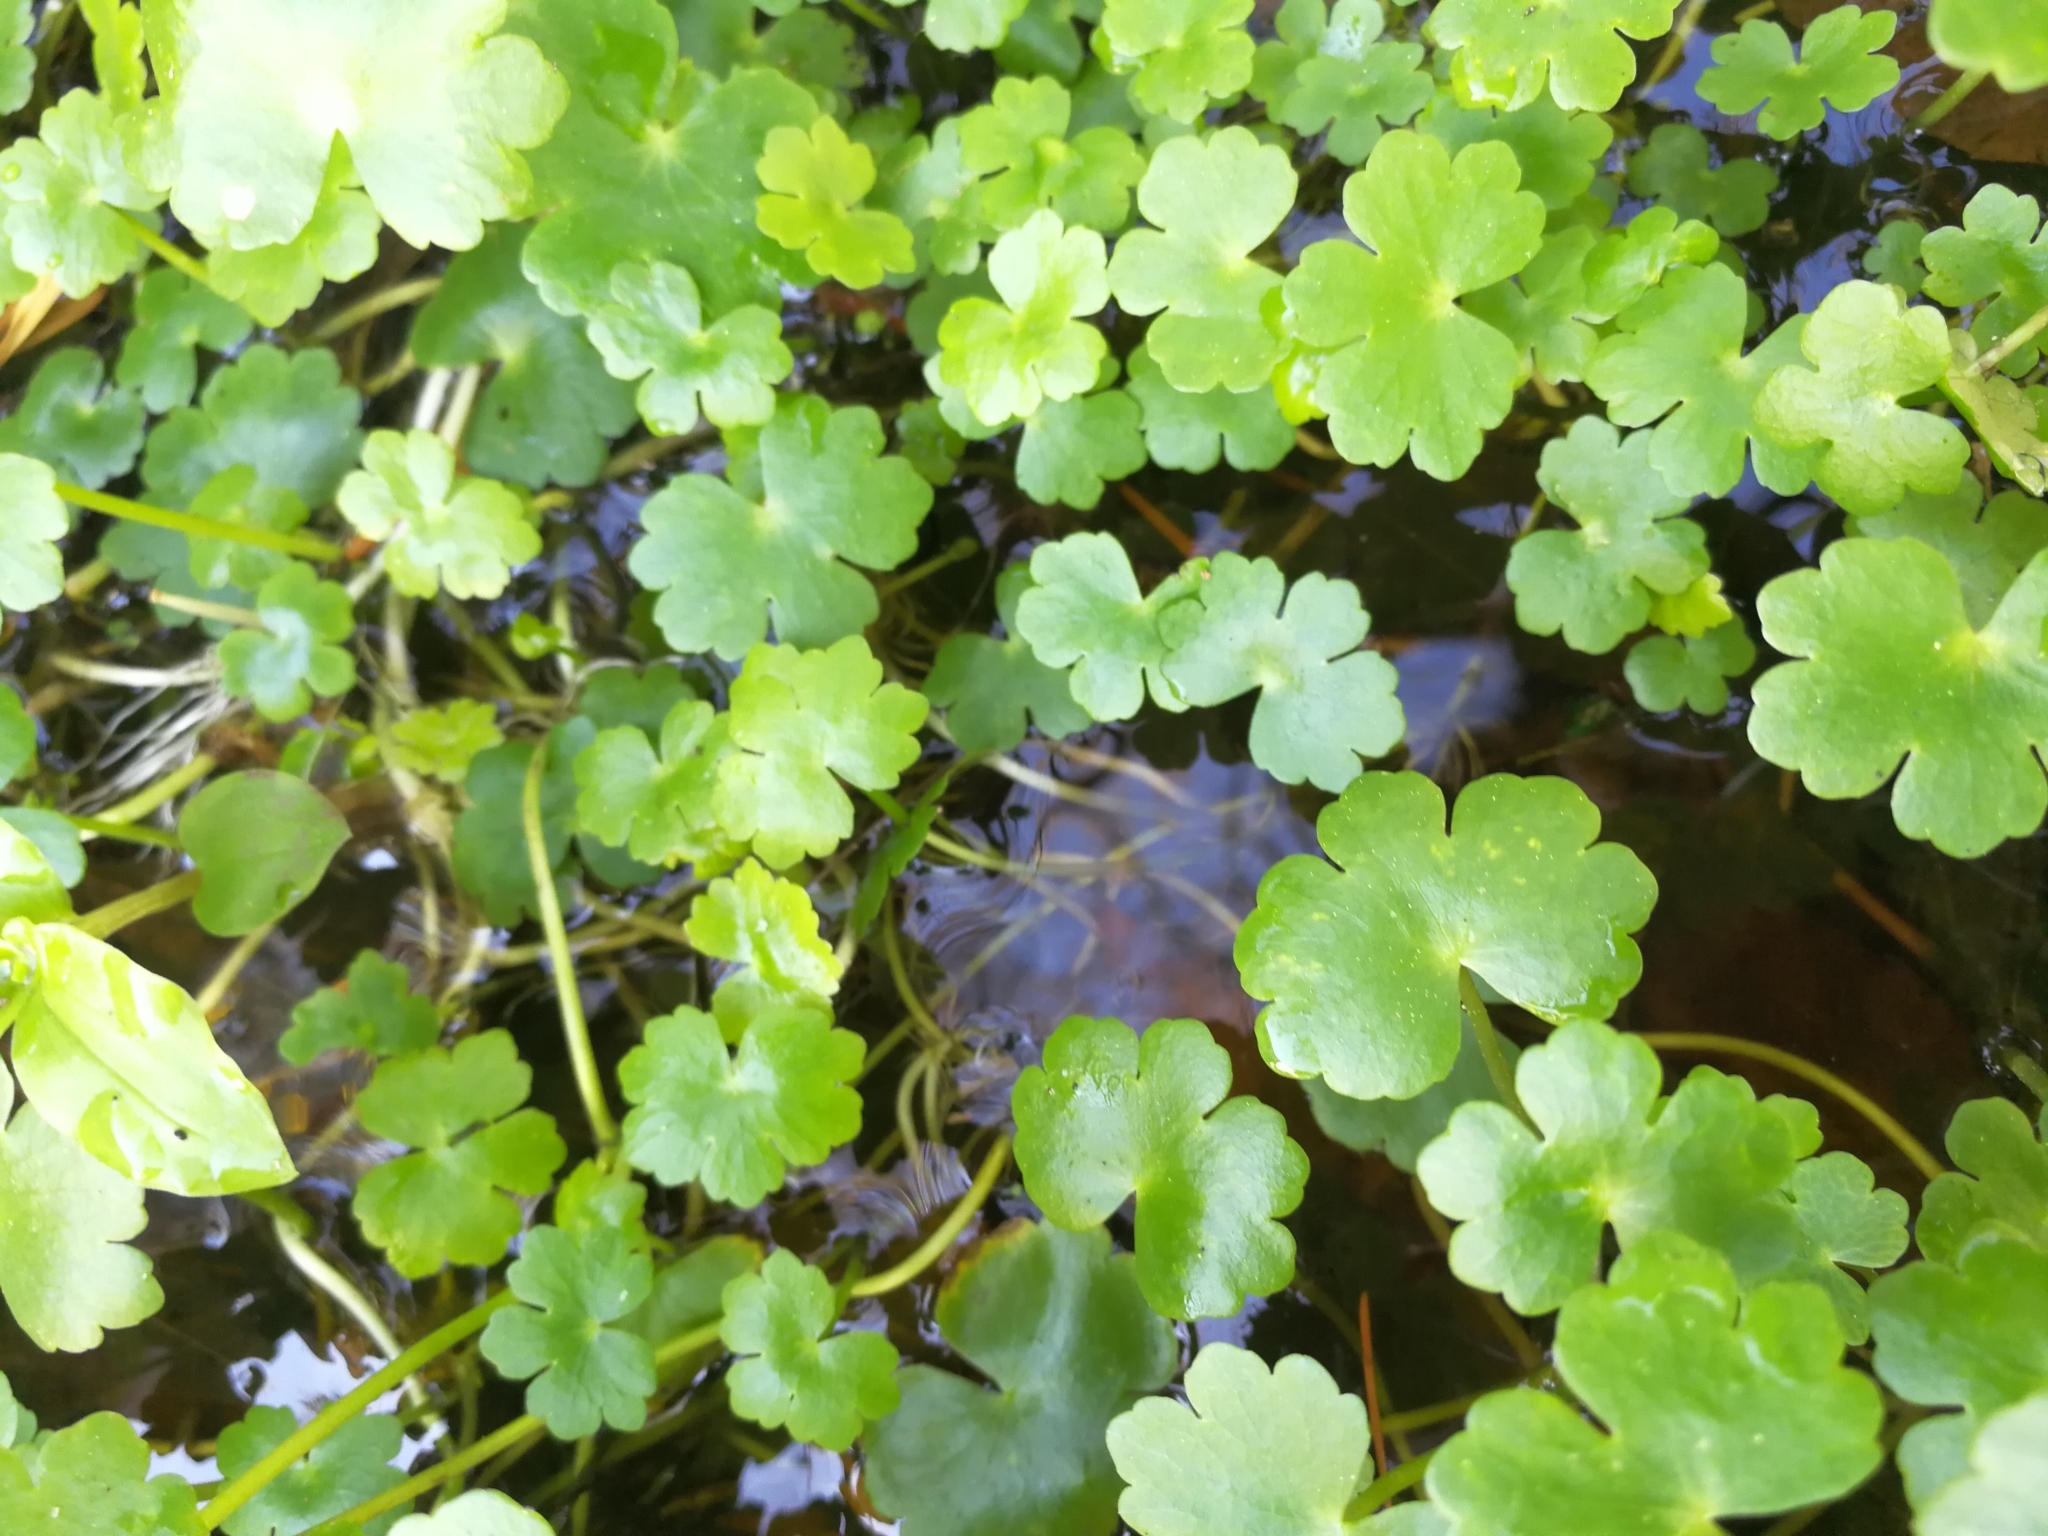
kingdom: Plantae
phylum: Tracheophyta
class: Magnoliopsida
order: Apiales
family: Araliaceae
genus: Hydrocotyle
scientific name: Hydrocotyle ranunculoides
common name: Floating pennywort
